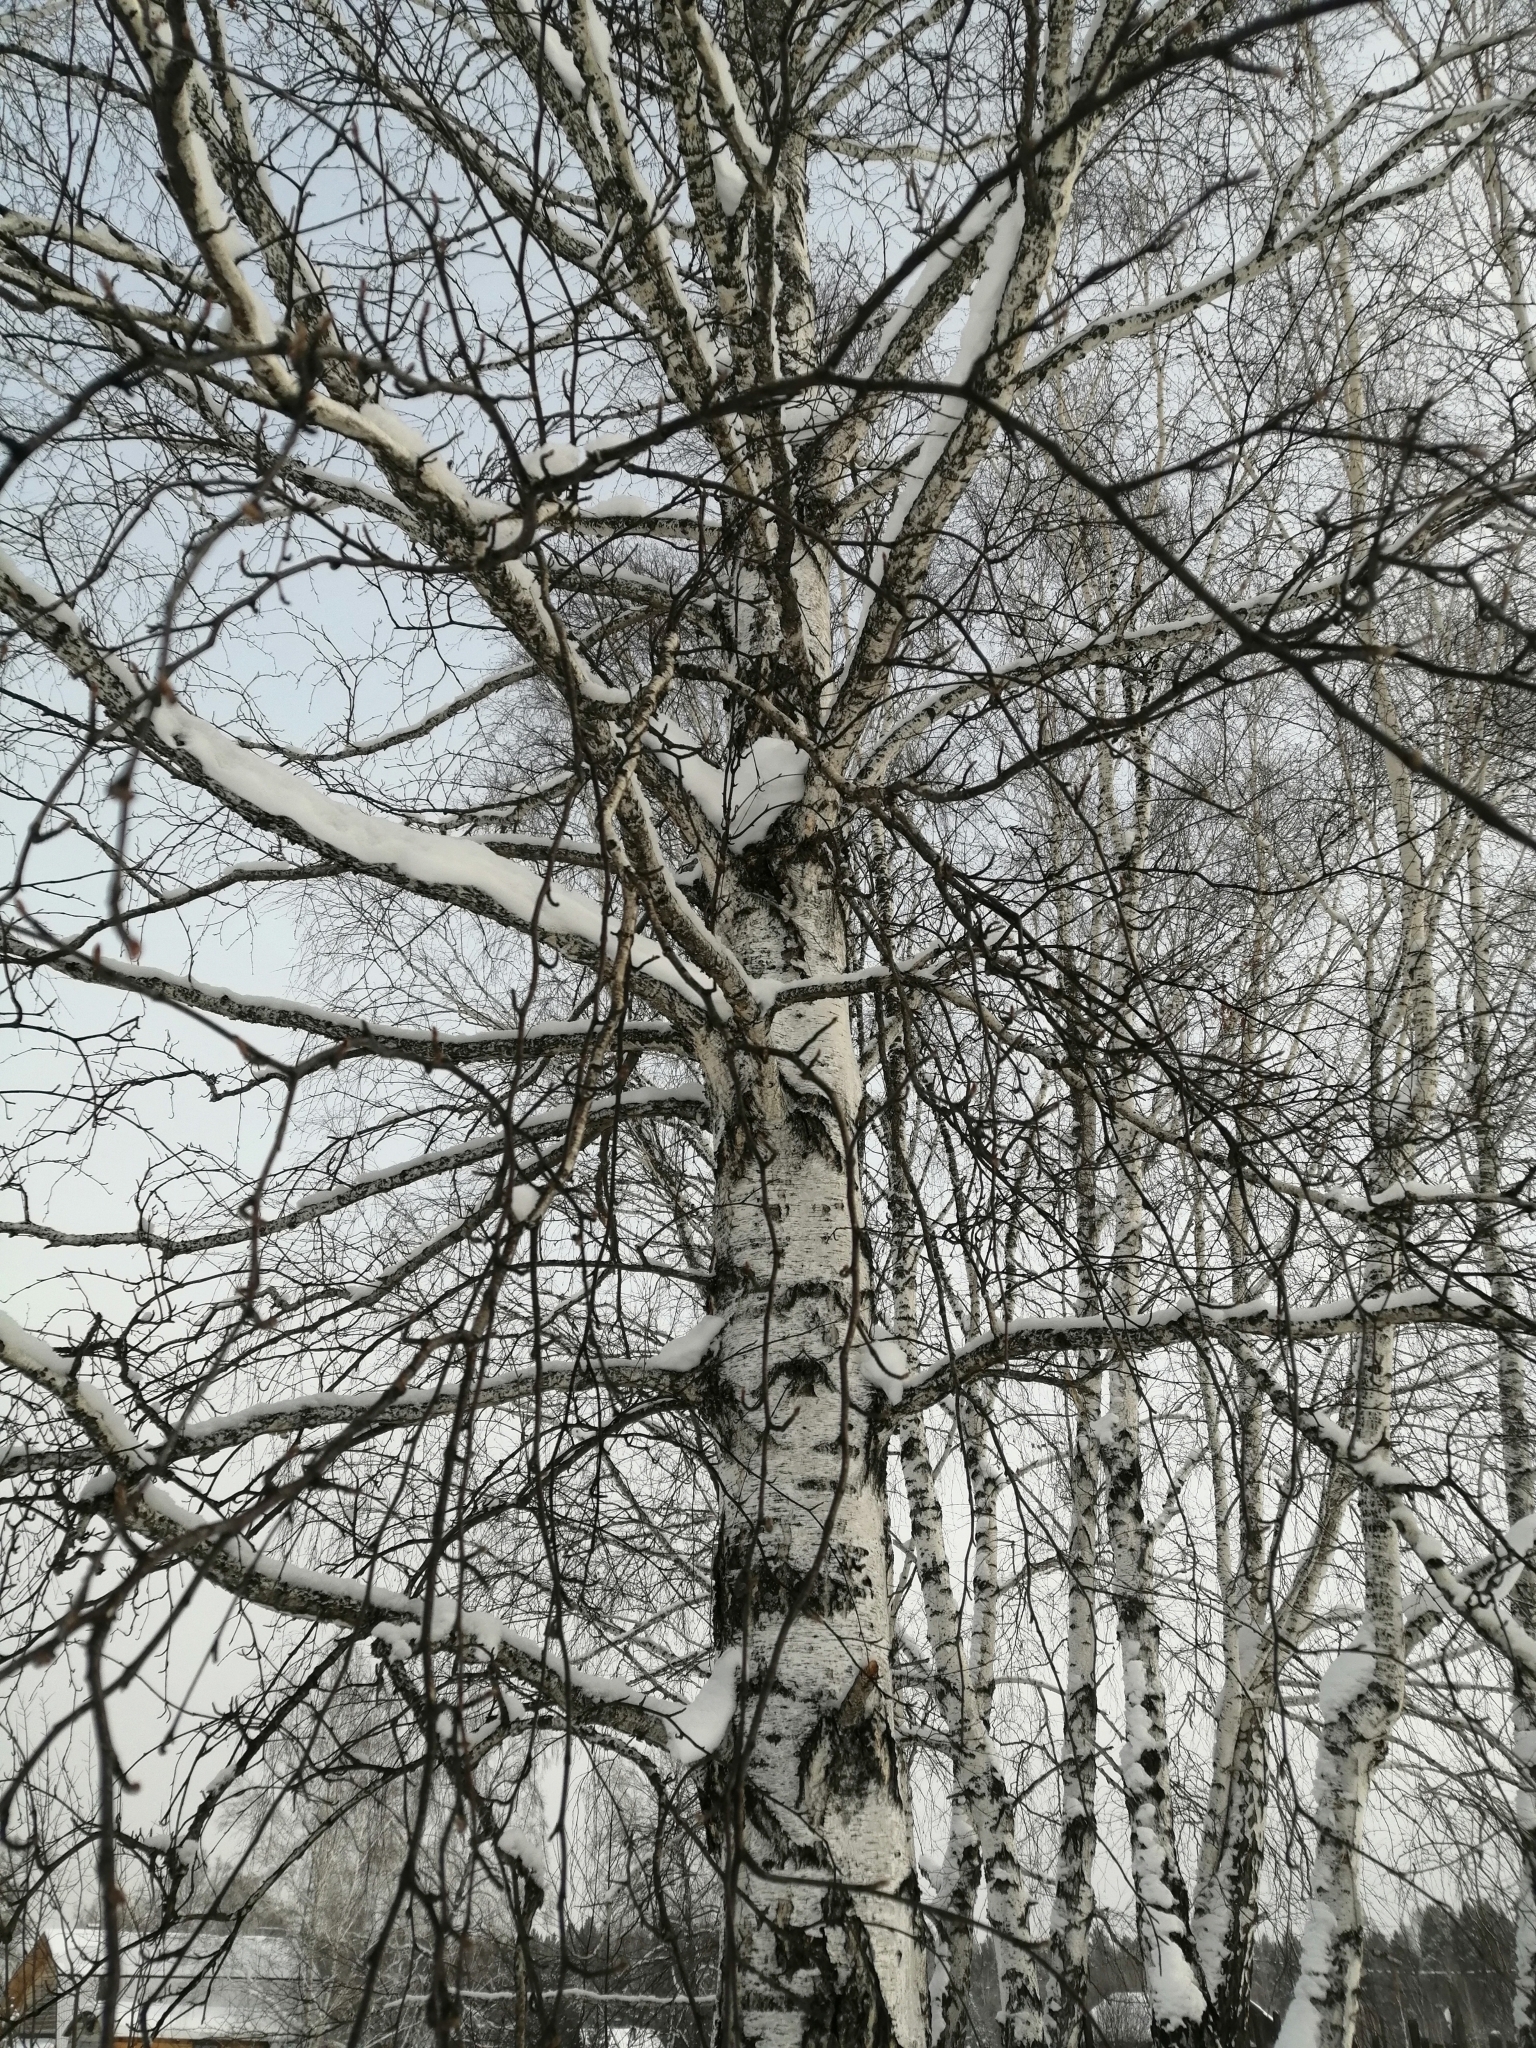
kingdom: Plantae
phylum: Tracheophyta
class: Magnoliopsida
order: Fagales
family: Betulaceae
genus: Betula
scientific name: Betula pendula
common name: Silver birch
